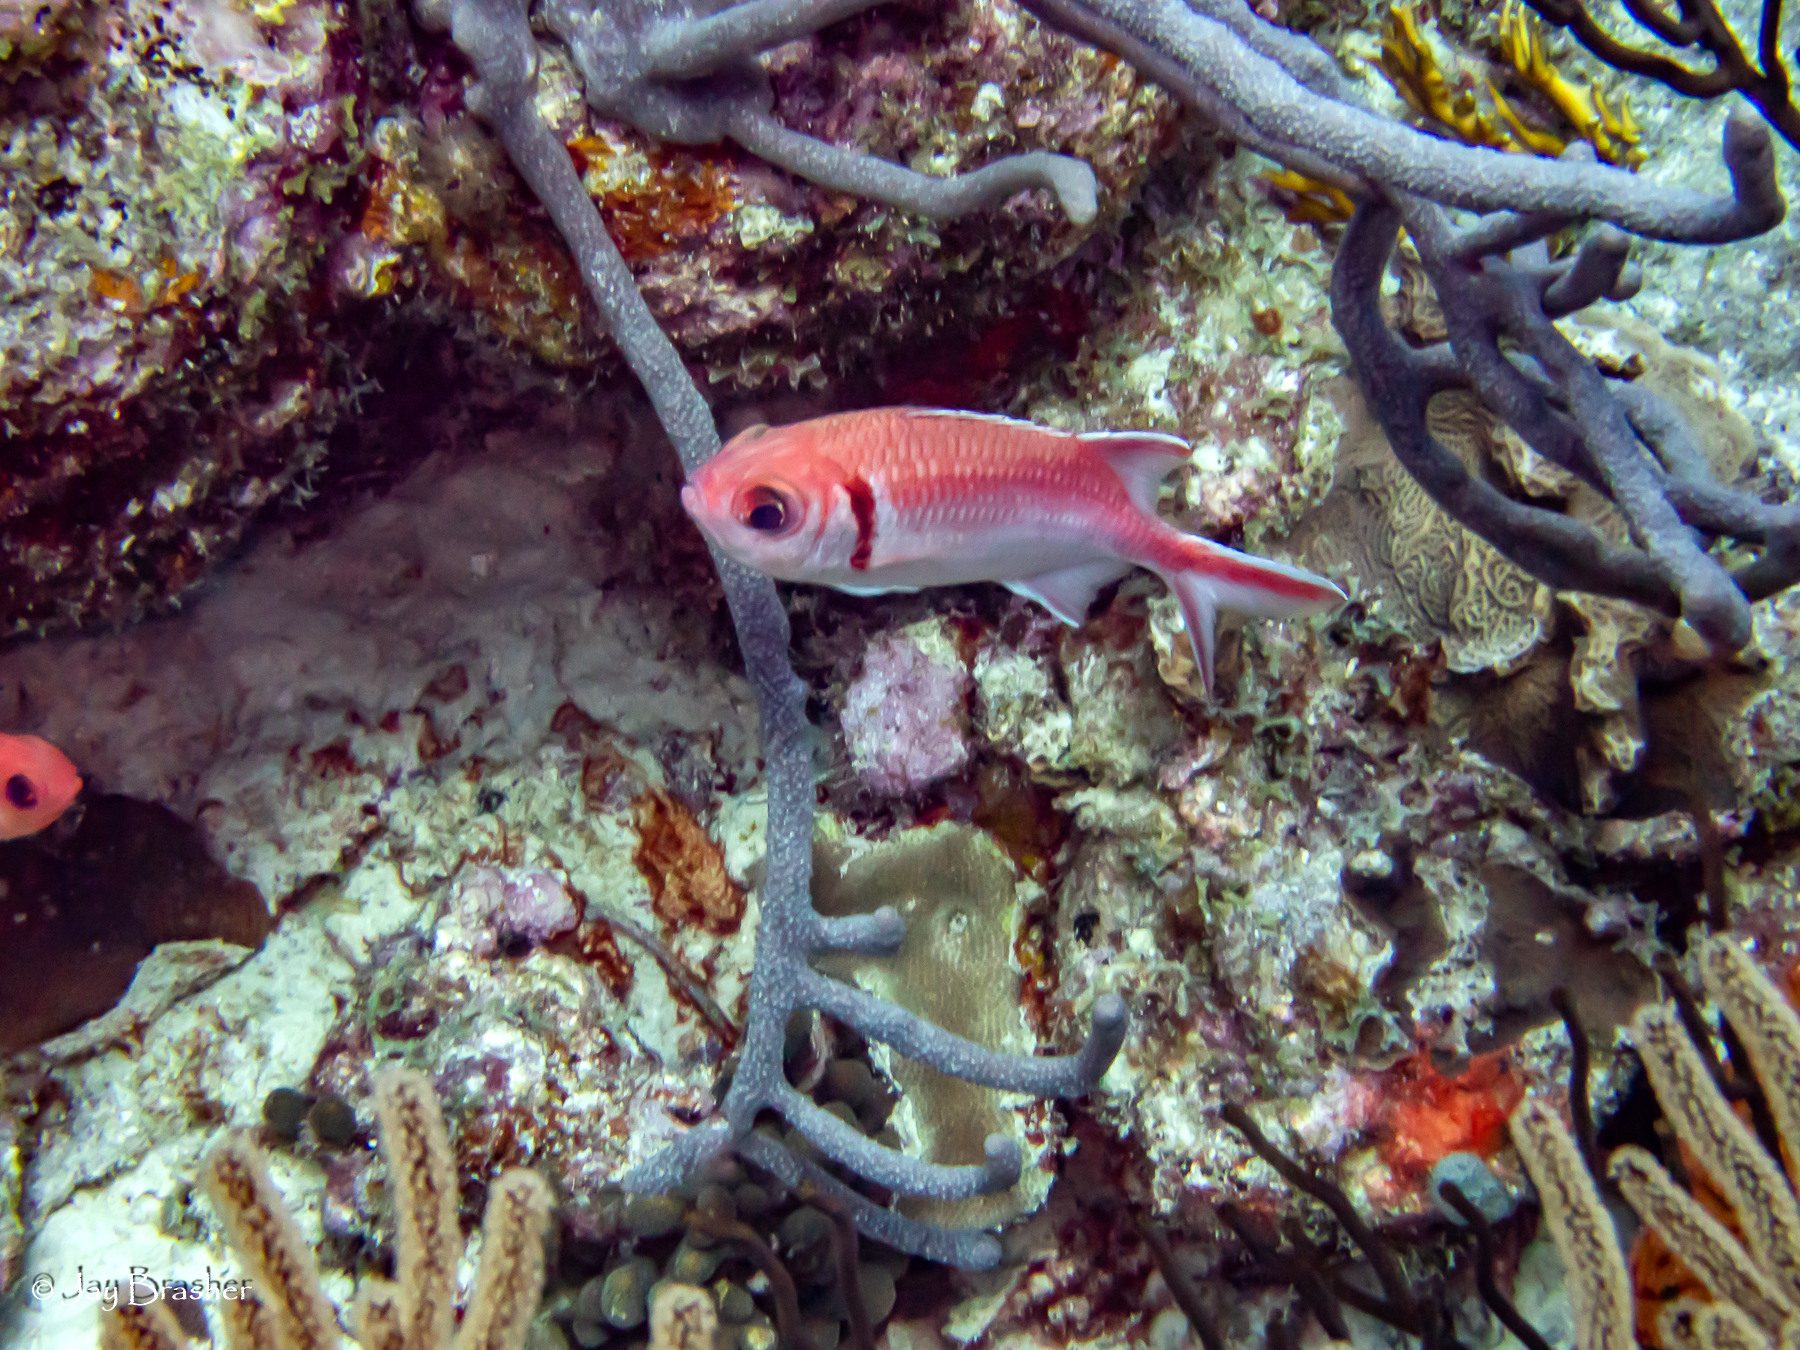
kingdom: Animalia
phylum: Chordata
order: Beryciformes
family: Holocentridae
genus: Myripristis
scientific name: Myripristis jacobus
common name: Blackbar soldierfish
